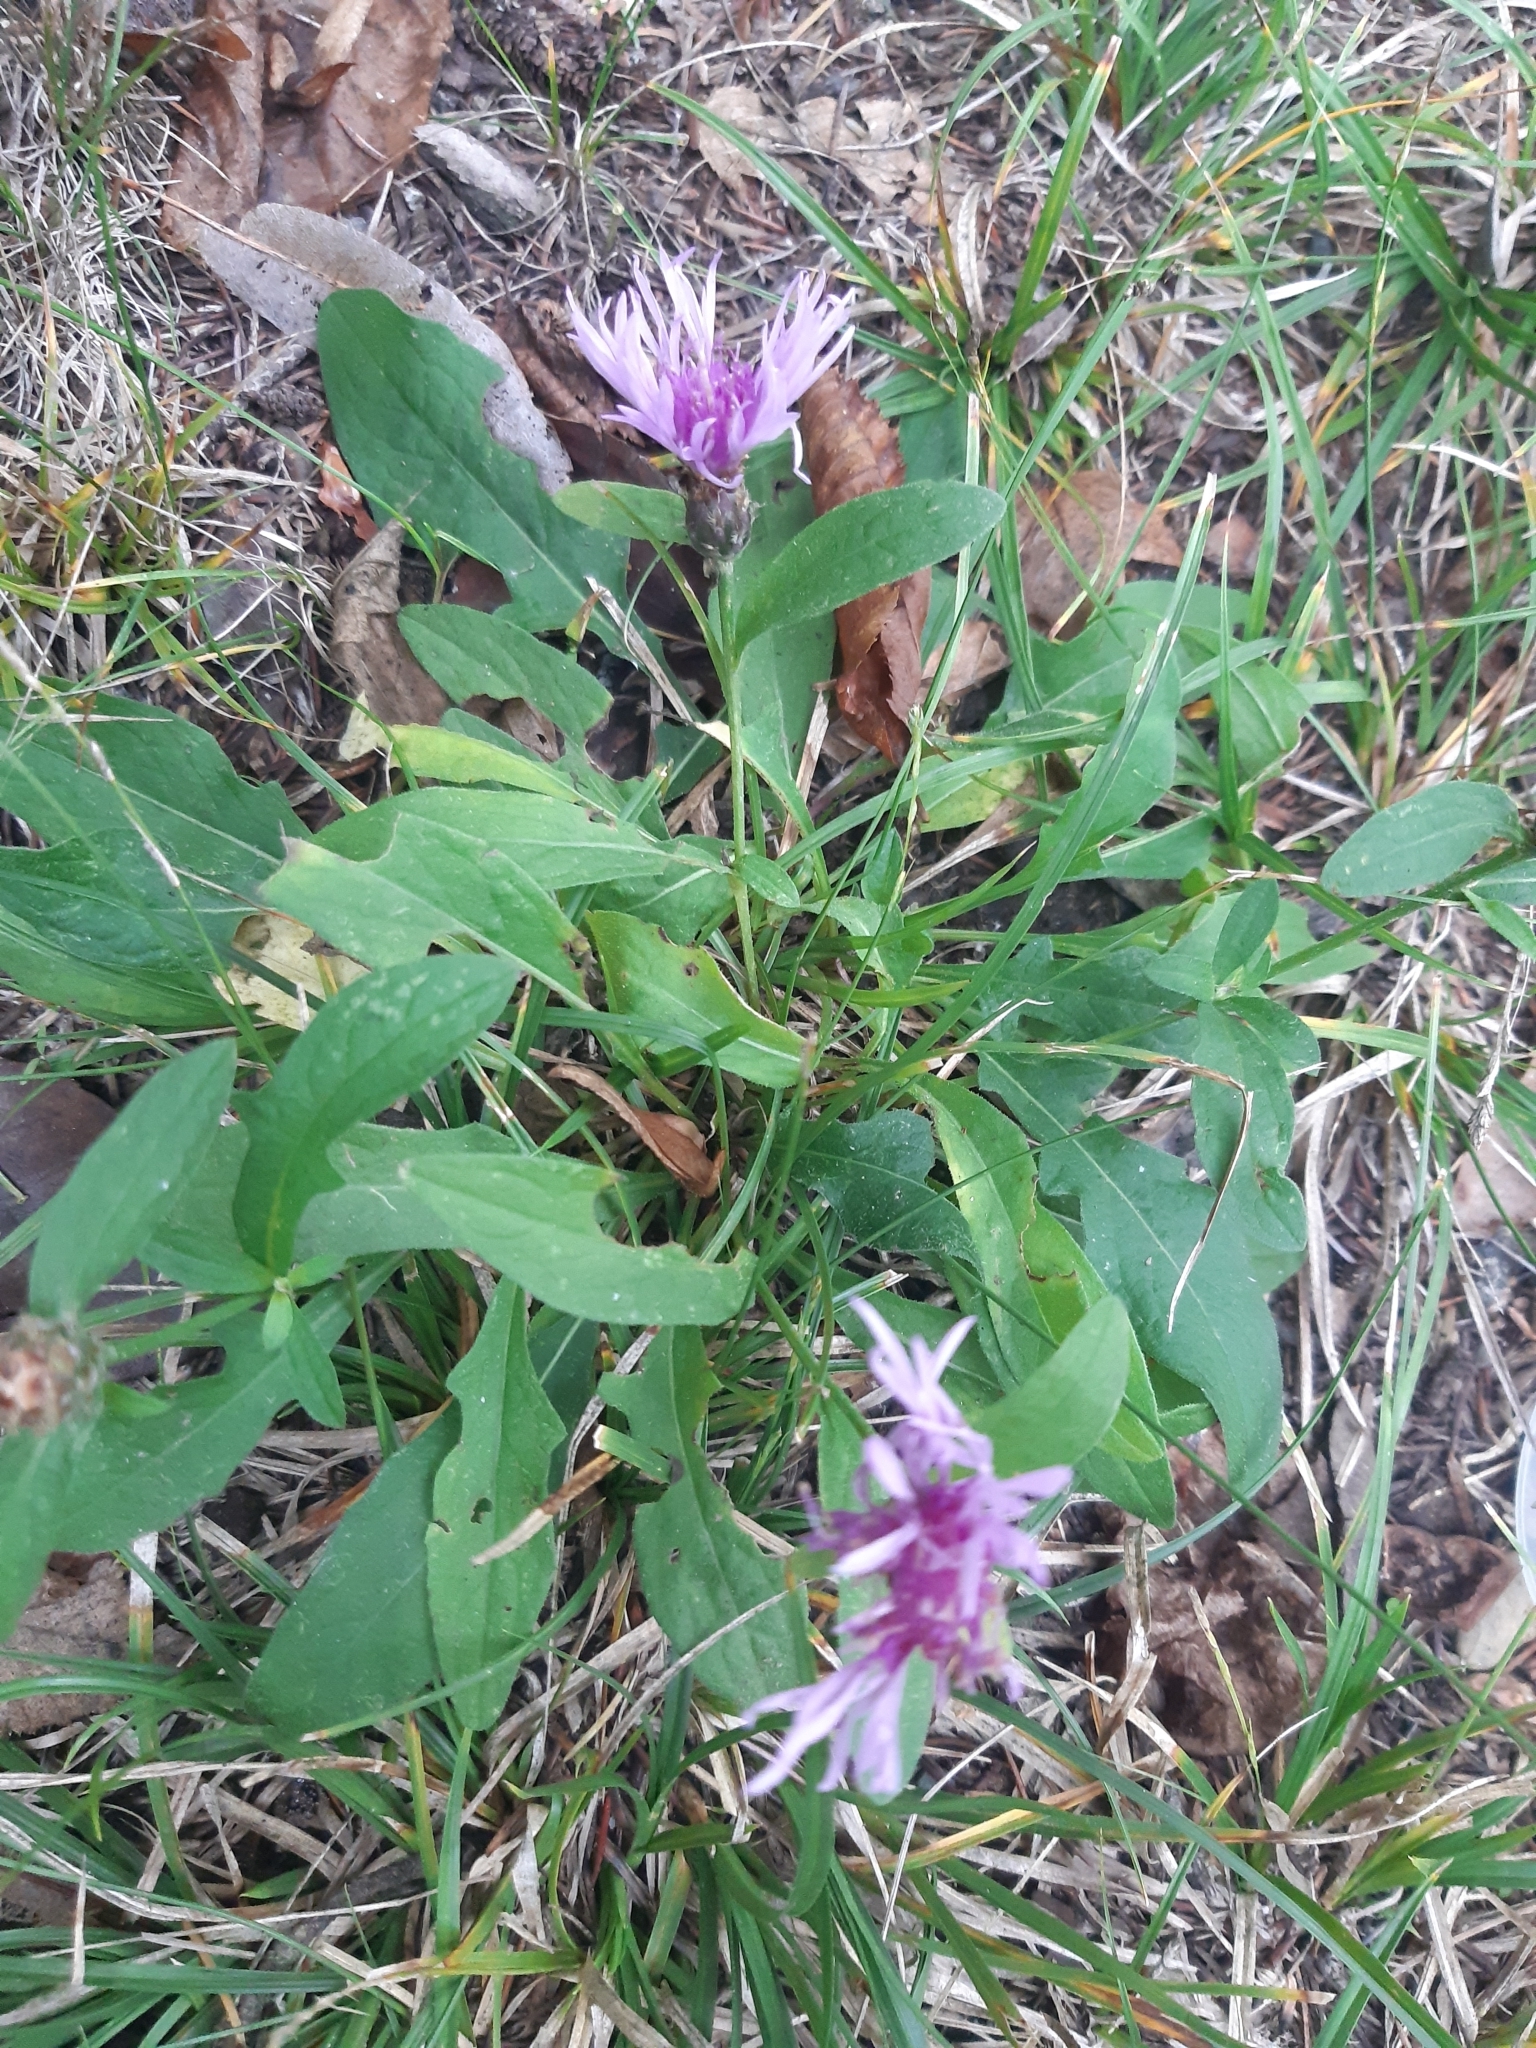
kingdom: Plantae
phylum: Tracheophyta
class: Magnoliopsida
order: Asterales
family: Asteraceae
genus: Centaurea
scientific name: Centaurea nigrescens
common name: Tyrol knapweed
